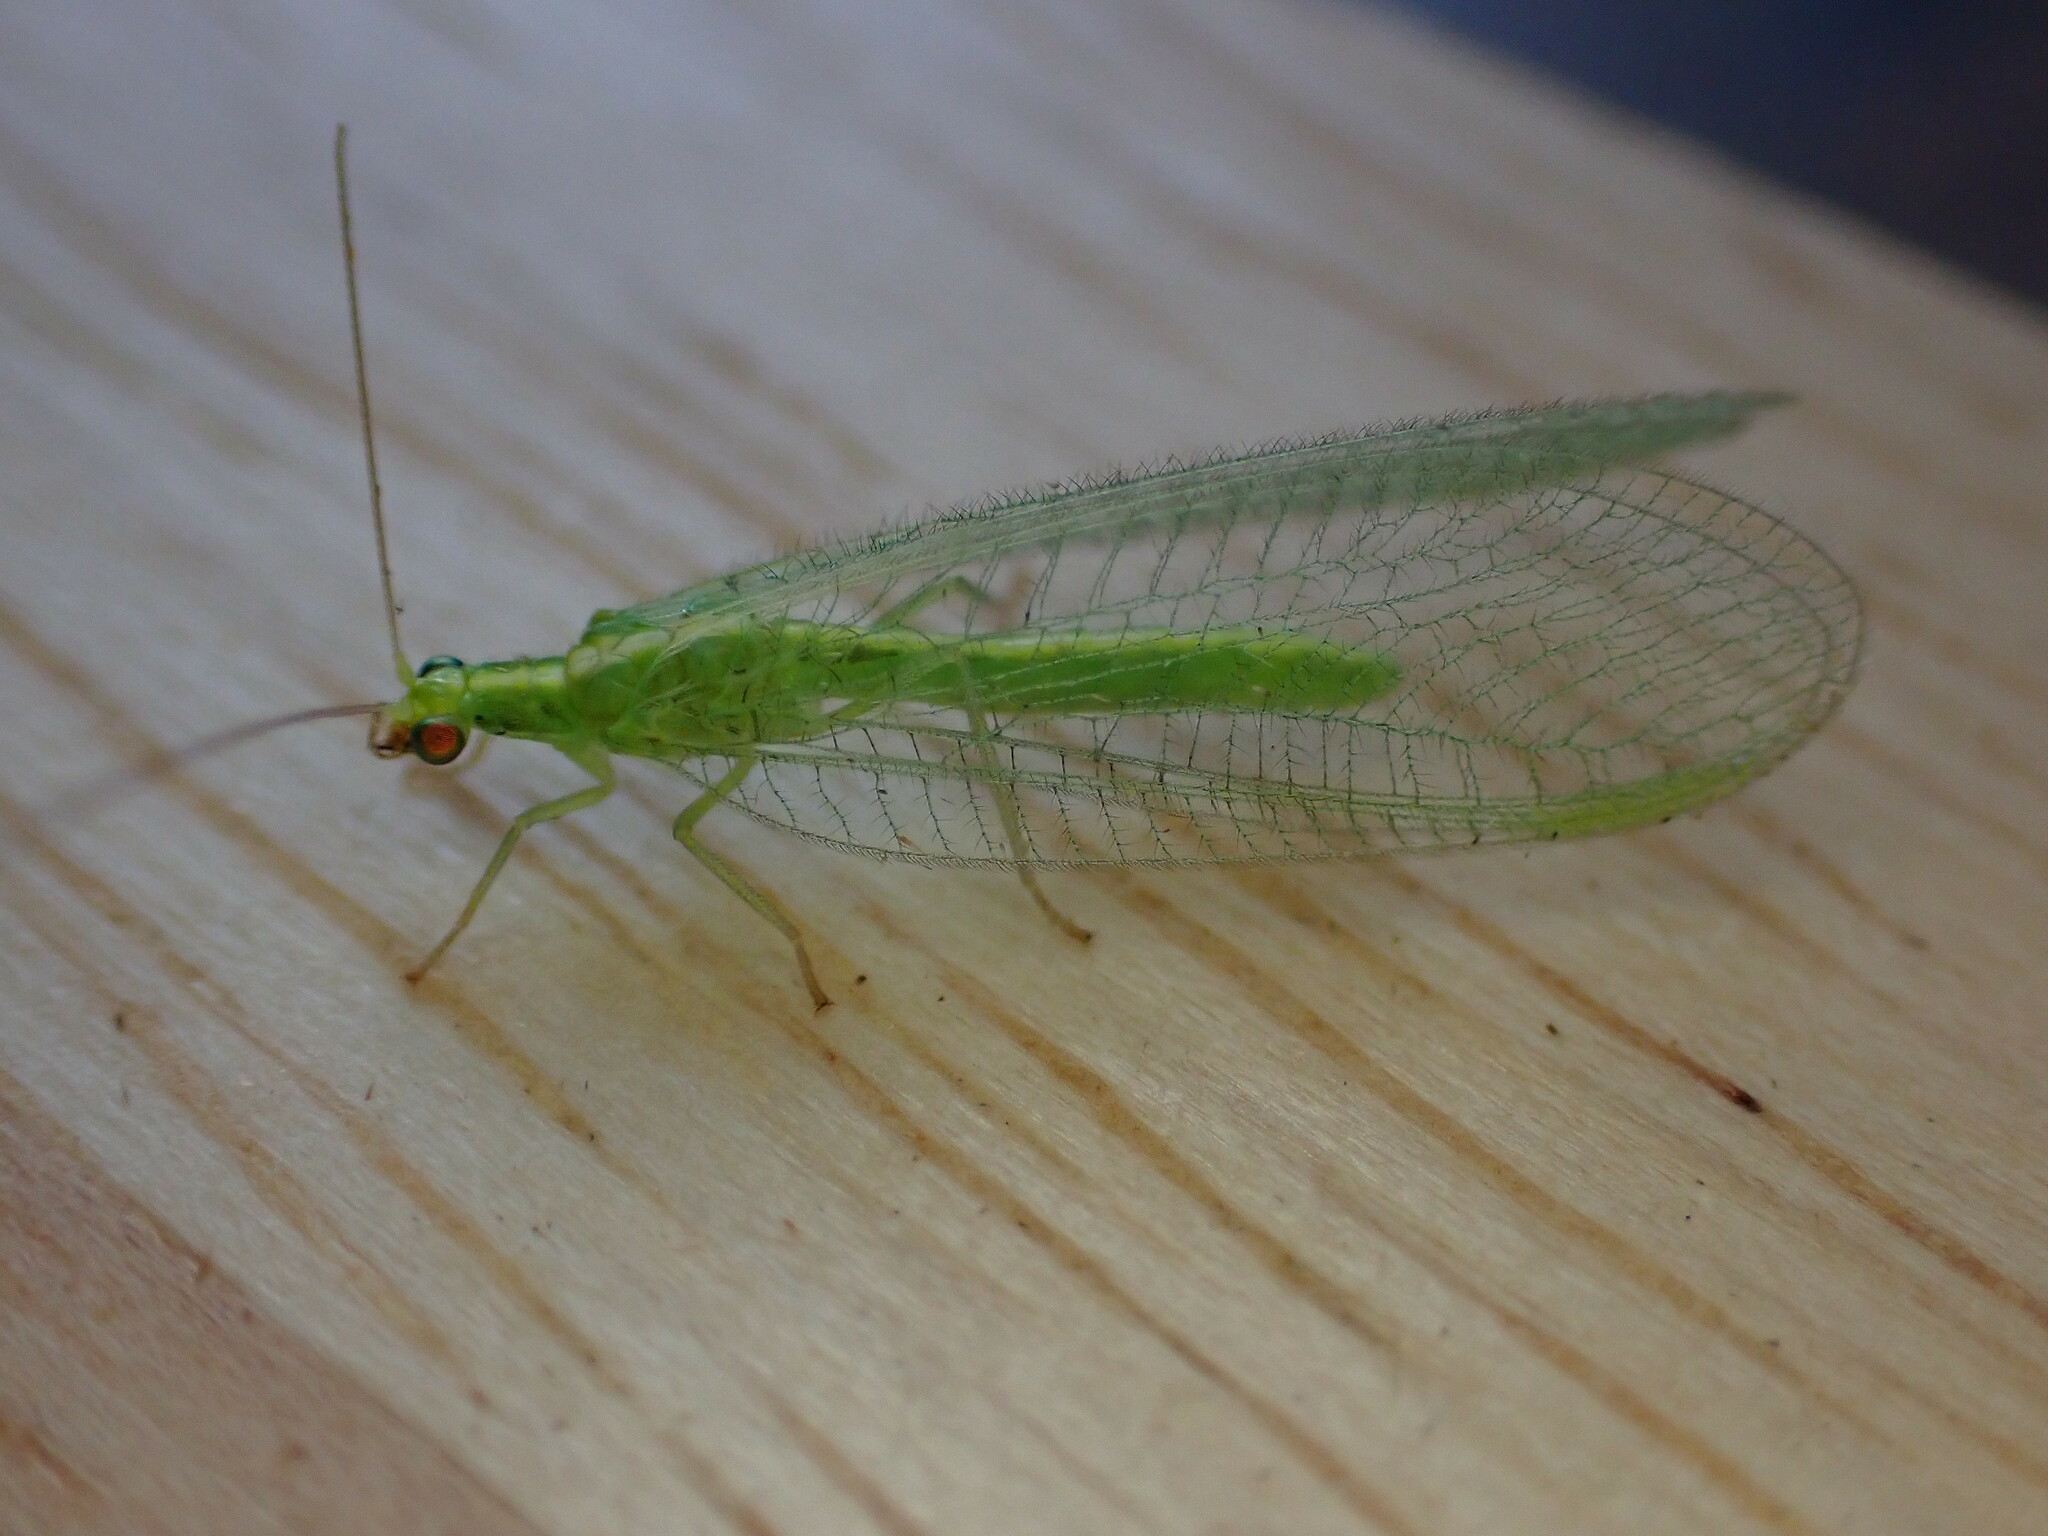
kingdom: Animalia
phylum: Arthropoda
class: Insecta
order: Neuroptera
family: Chrysopidae
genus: Chrysoperla
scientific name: Chrysoperla
